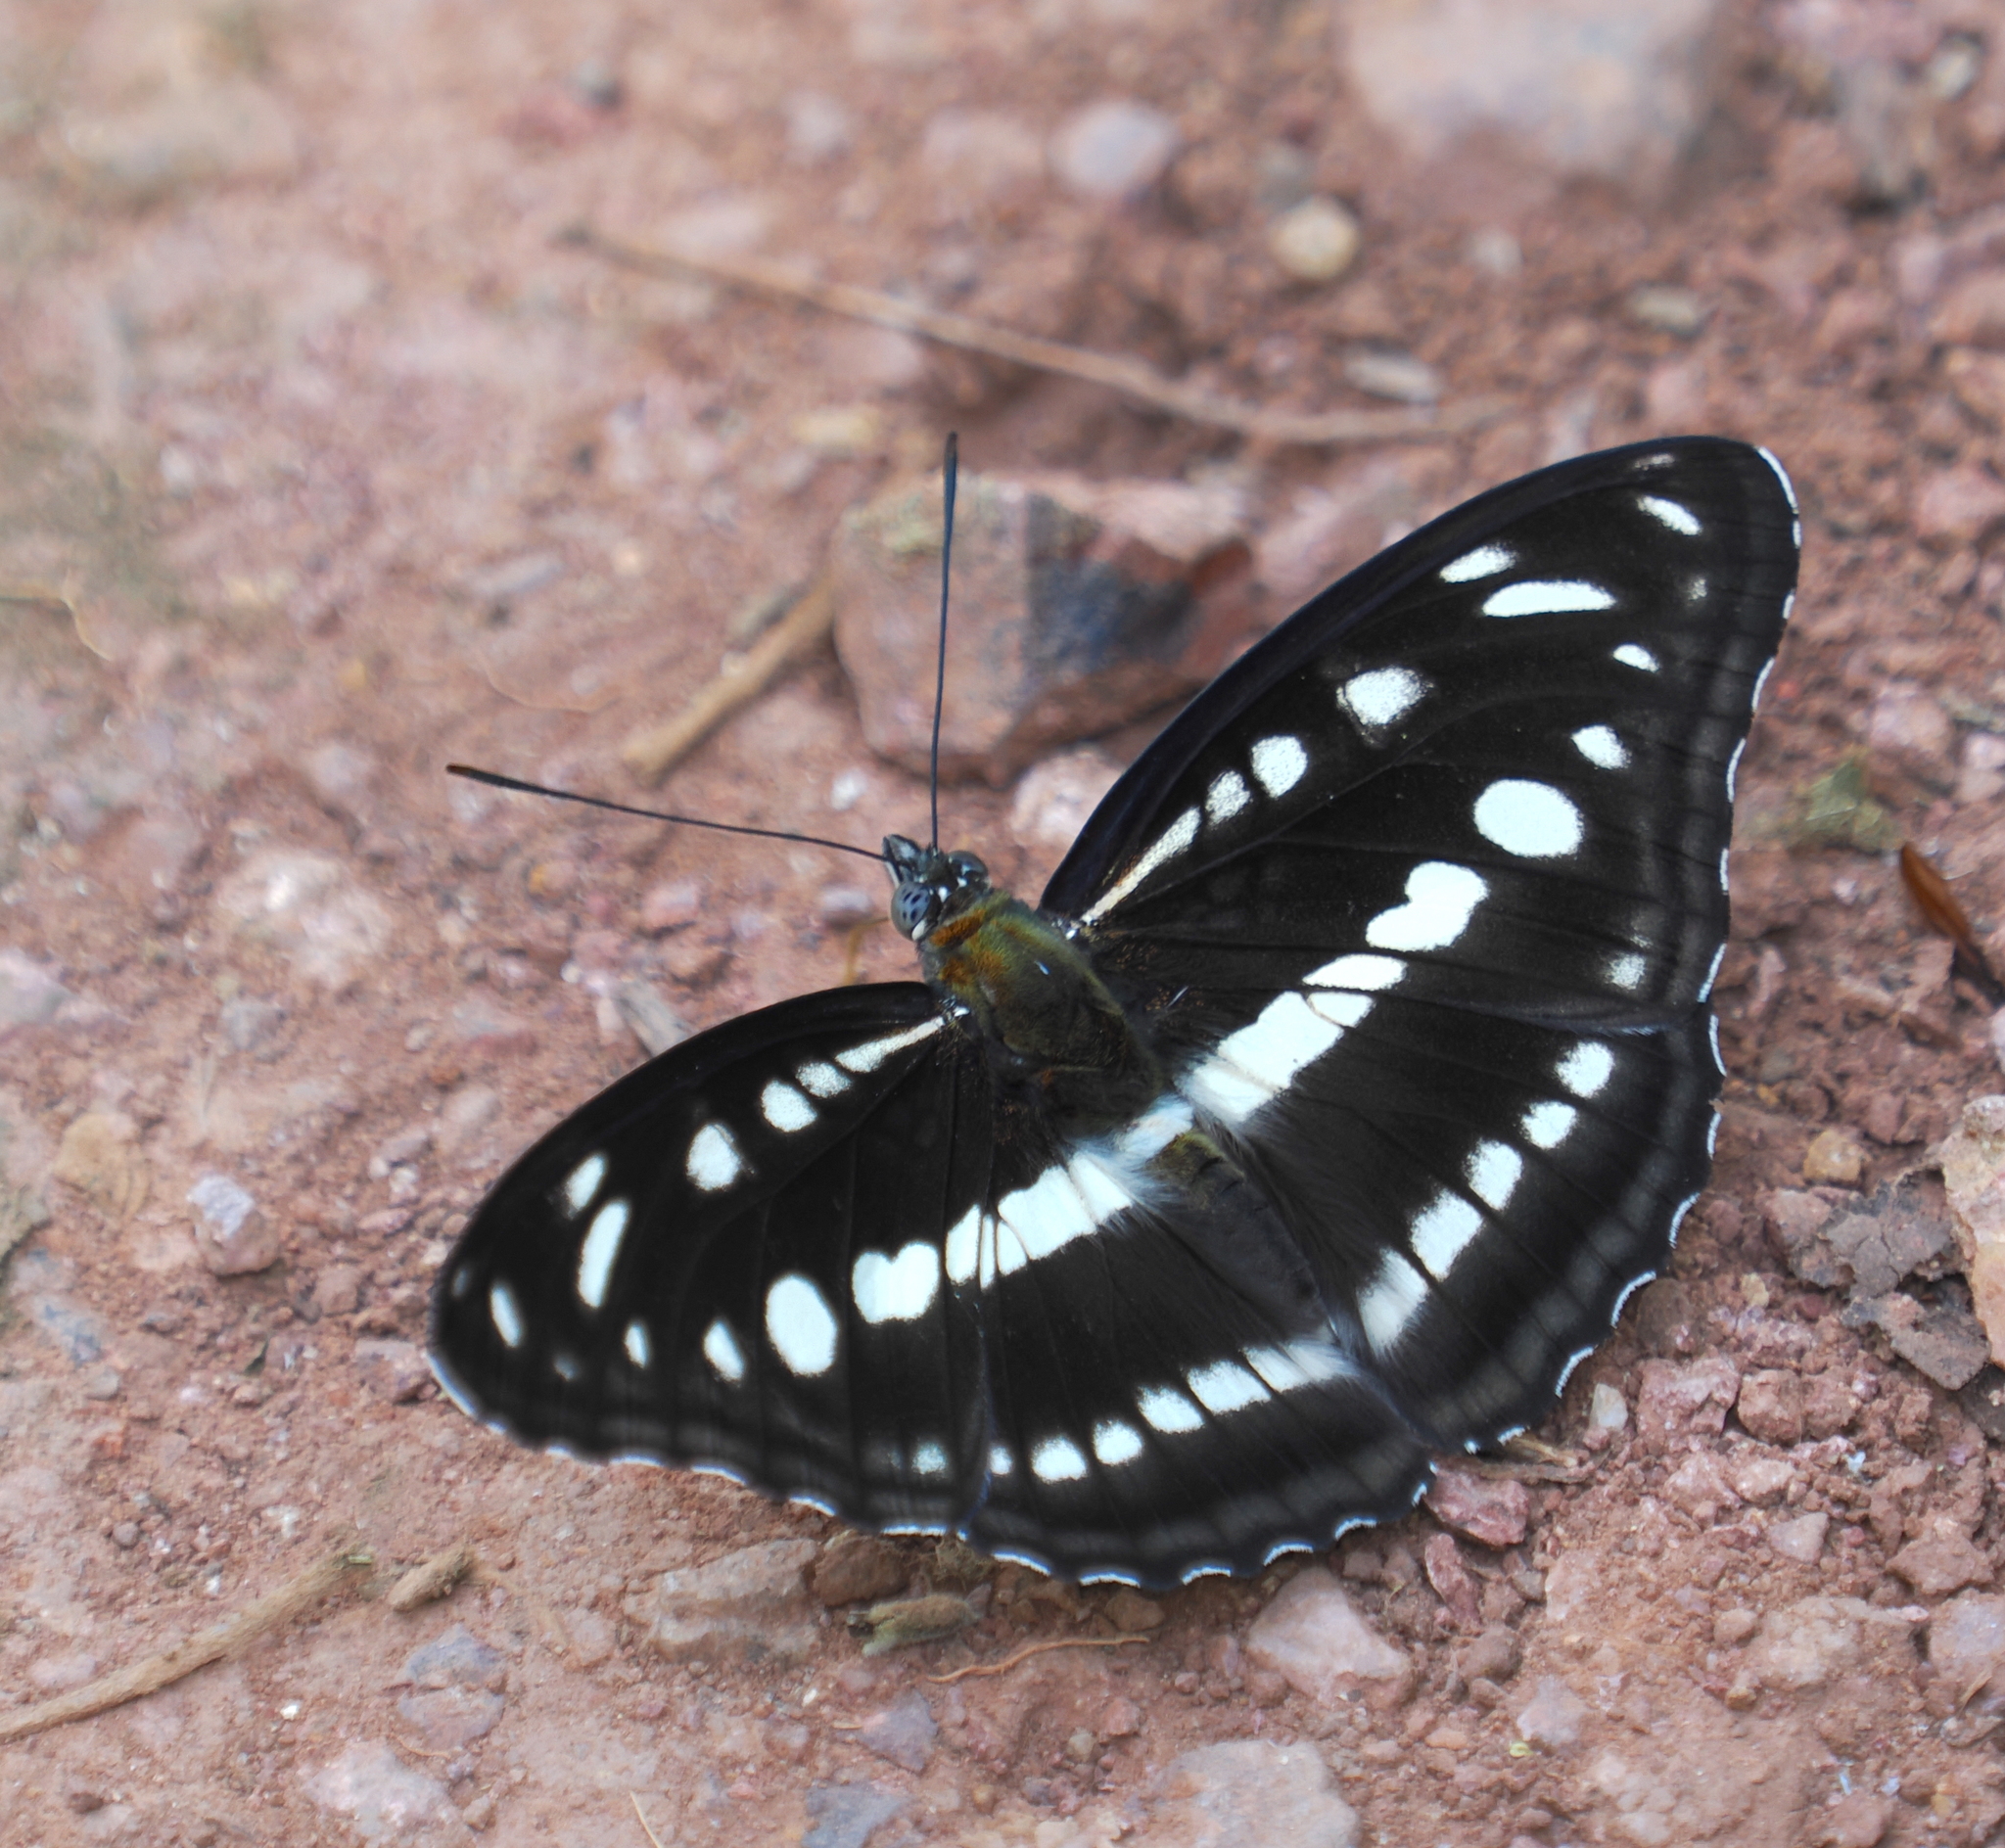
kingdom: Animalia
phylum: Arthropoda
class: Insecta
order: Lepidoptera
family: Nymphalidae
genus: Parathyma
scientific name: Parathyma opalina
